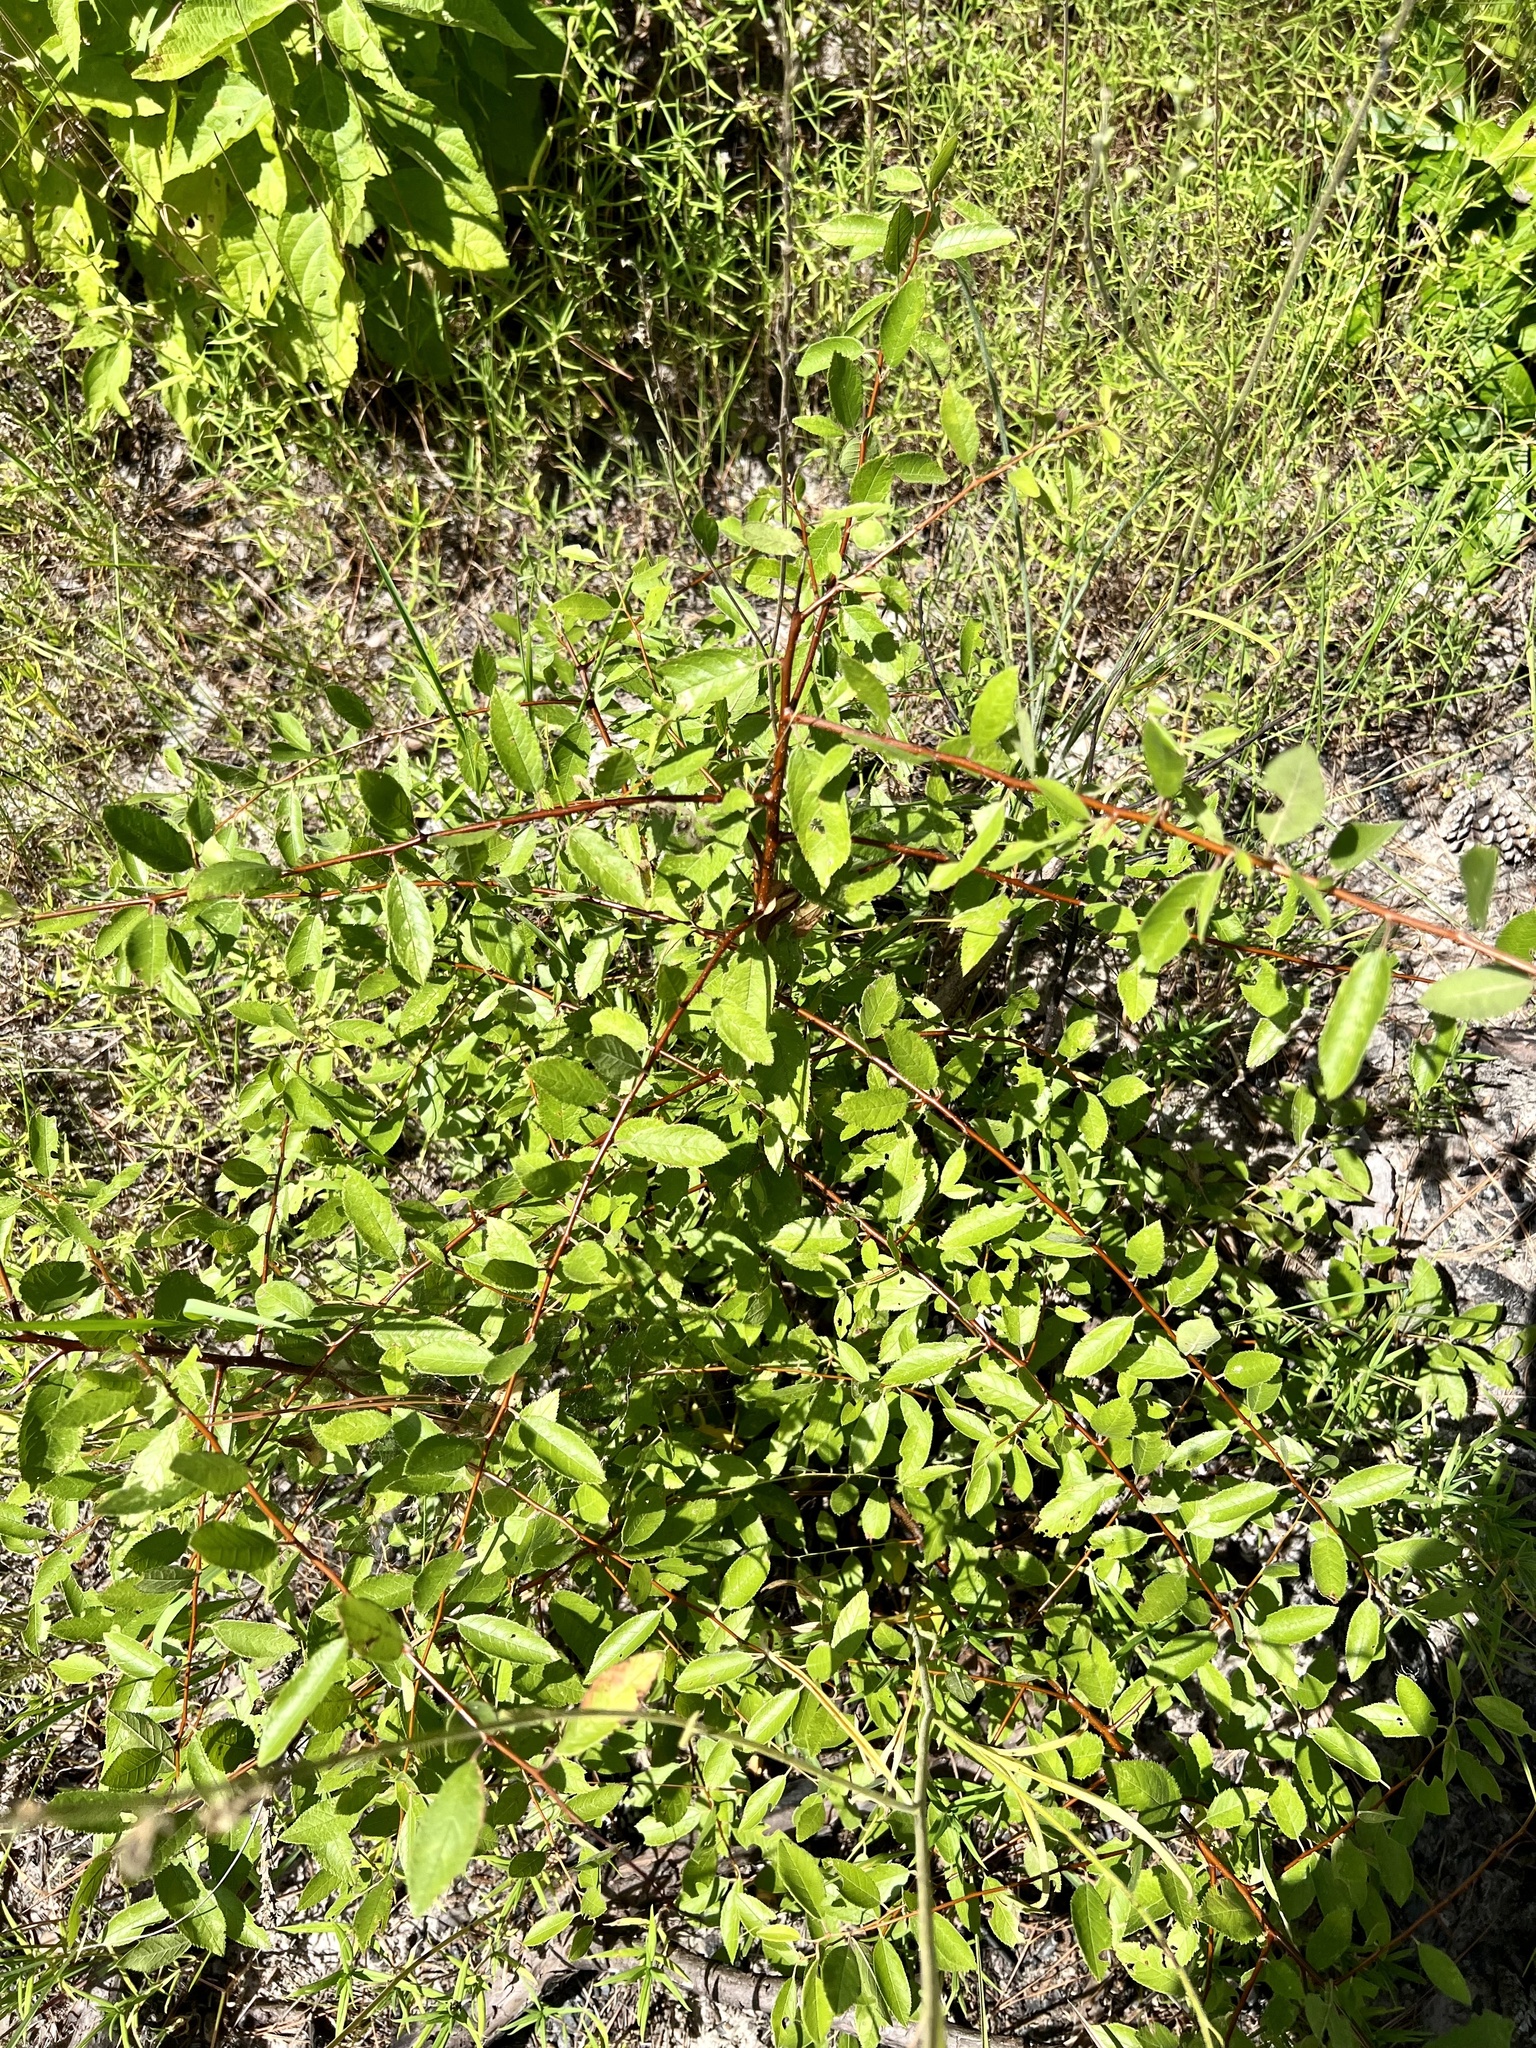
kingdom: Plantae
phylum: Tracheophyta
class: Magnoliopsida
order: Rosales
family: Rosaceae
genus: Prunus
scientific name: Prunus umbellata
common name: Allegheny plum
